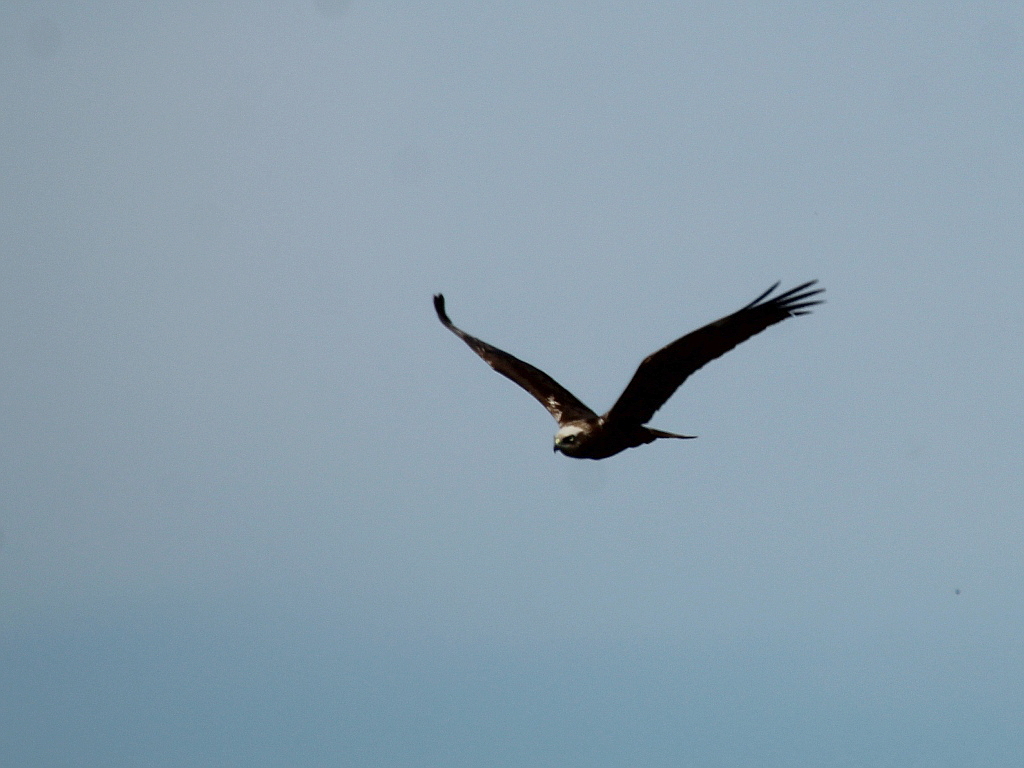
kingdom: Animalia
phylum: Chordata
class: Aves
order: Accipitriformes
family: Accipitridae
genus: Circus
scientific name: Circus aeruginosus
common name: Western marsh harrier
